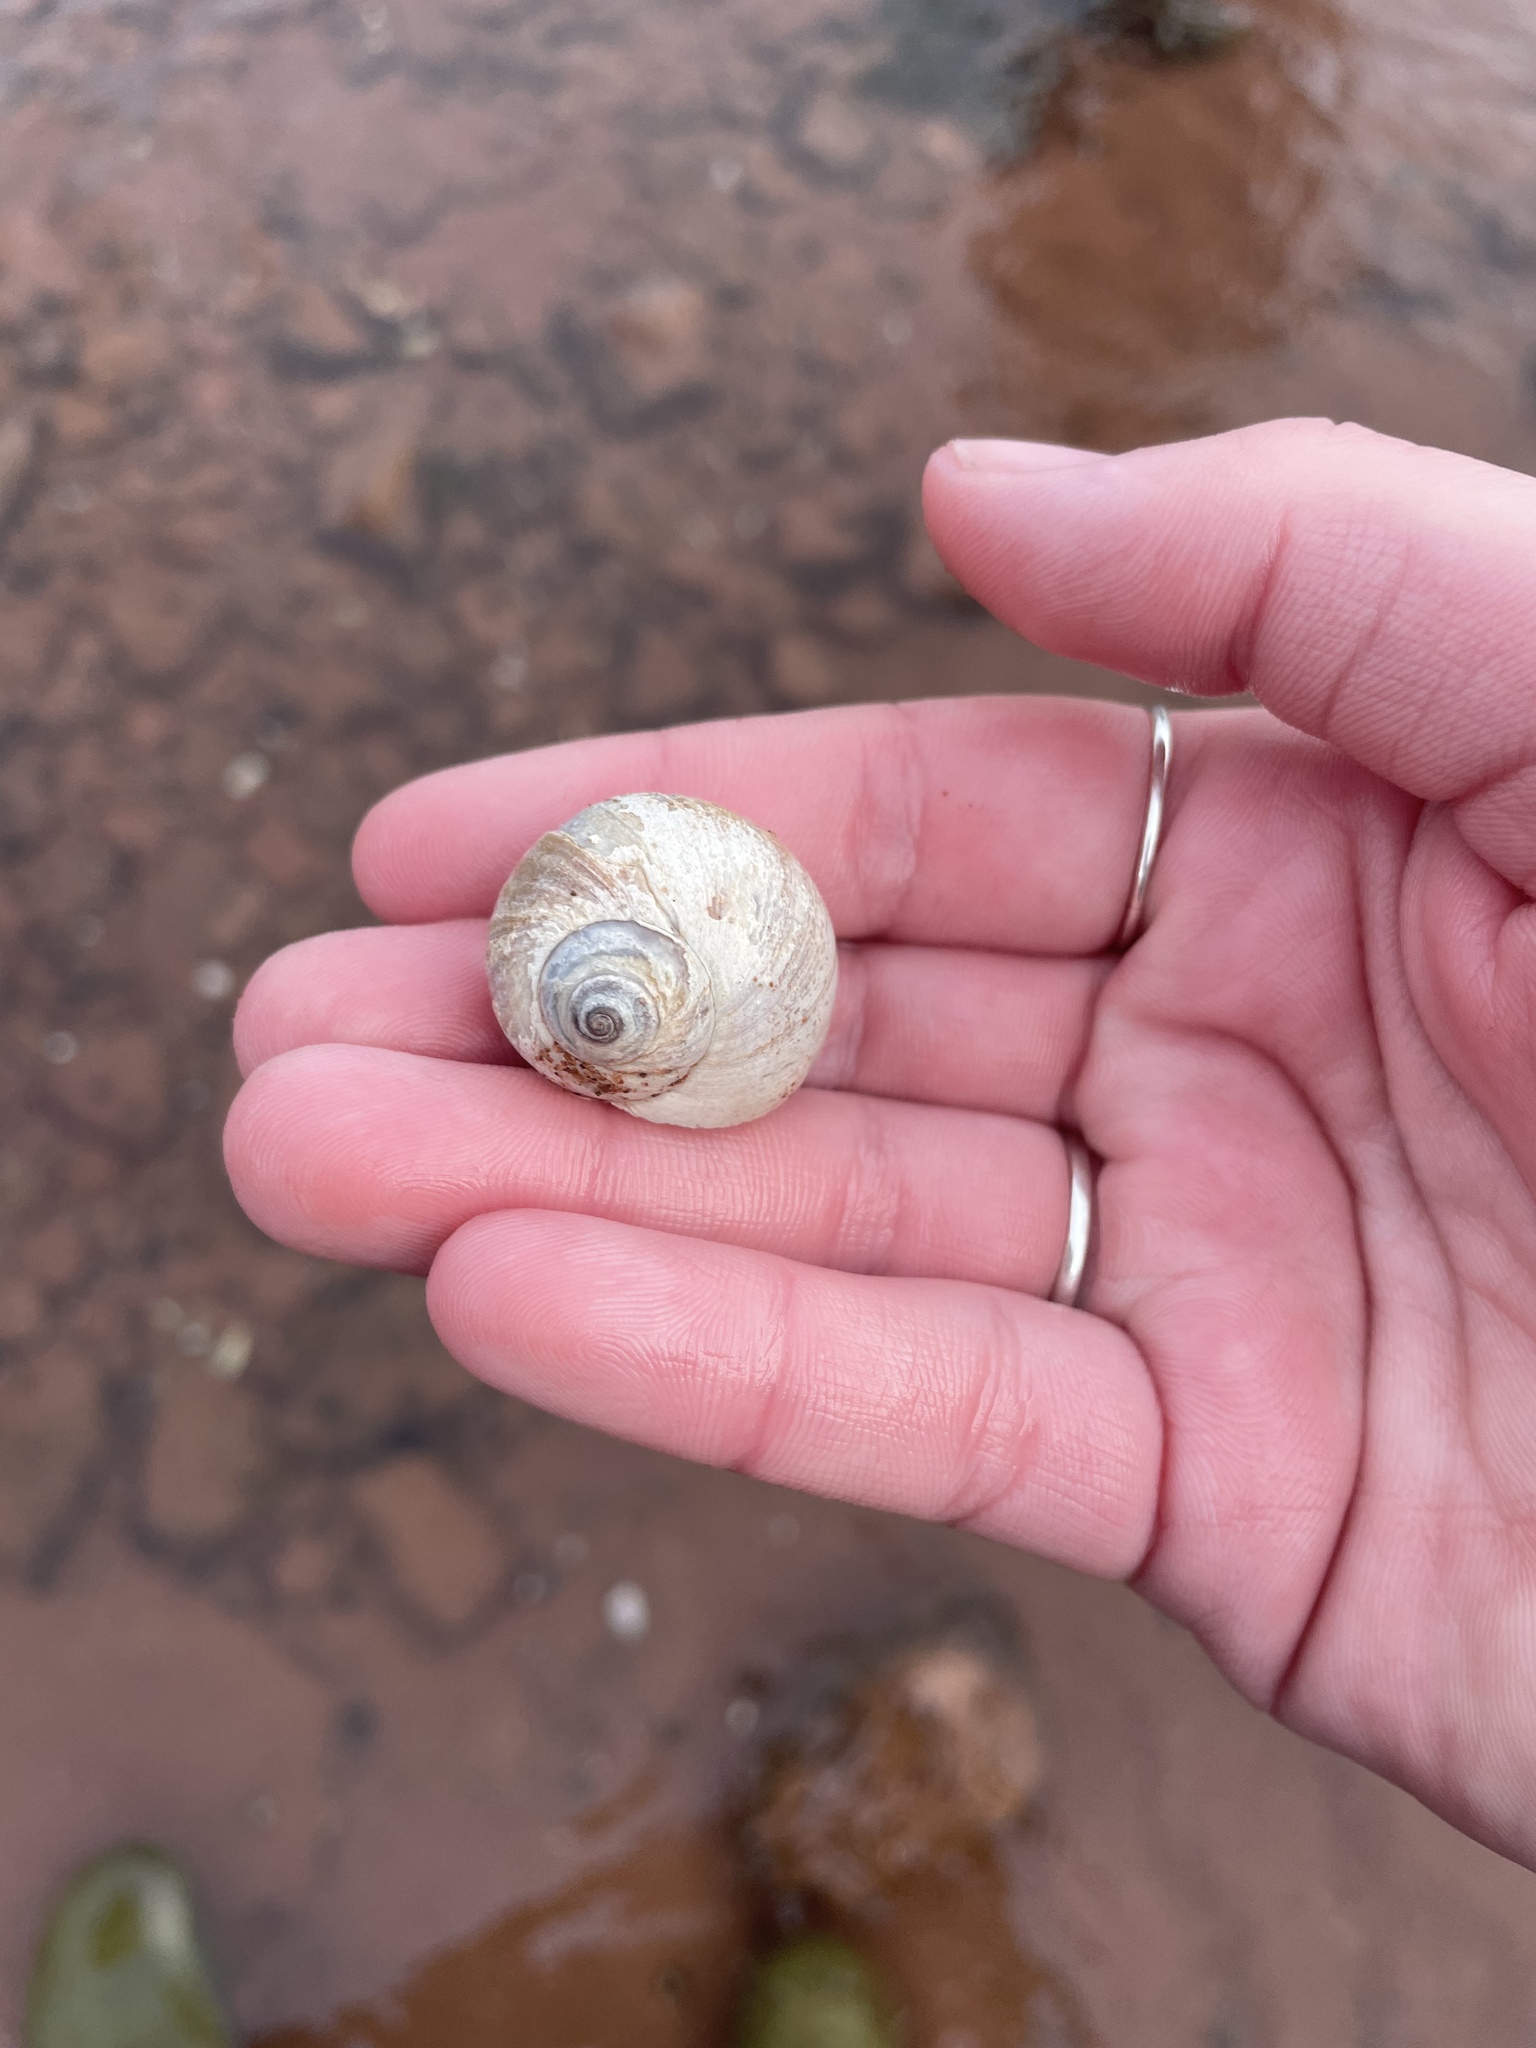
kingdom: Animalia
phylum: Mollusca
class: Gastropoda
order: Littorinimorpha
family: Naticidae
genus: Euspira
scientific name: Euspira heros
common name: Common northern moonsnail
